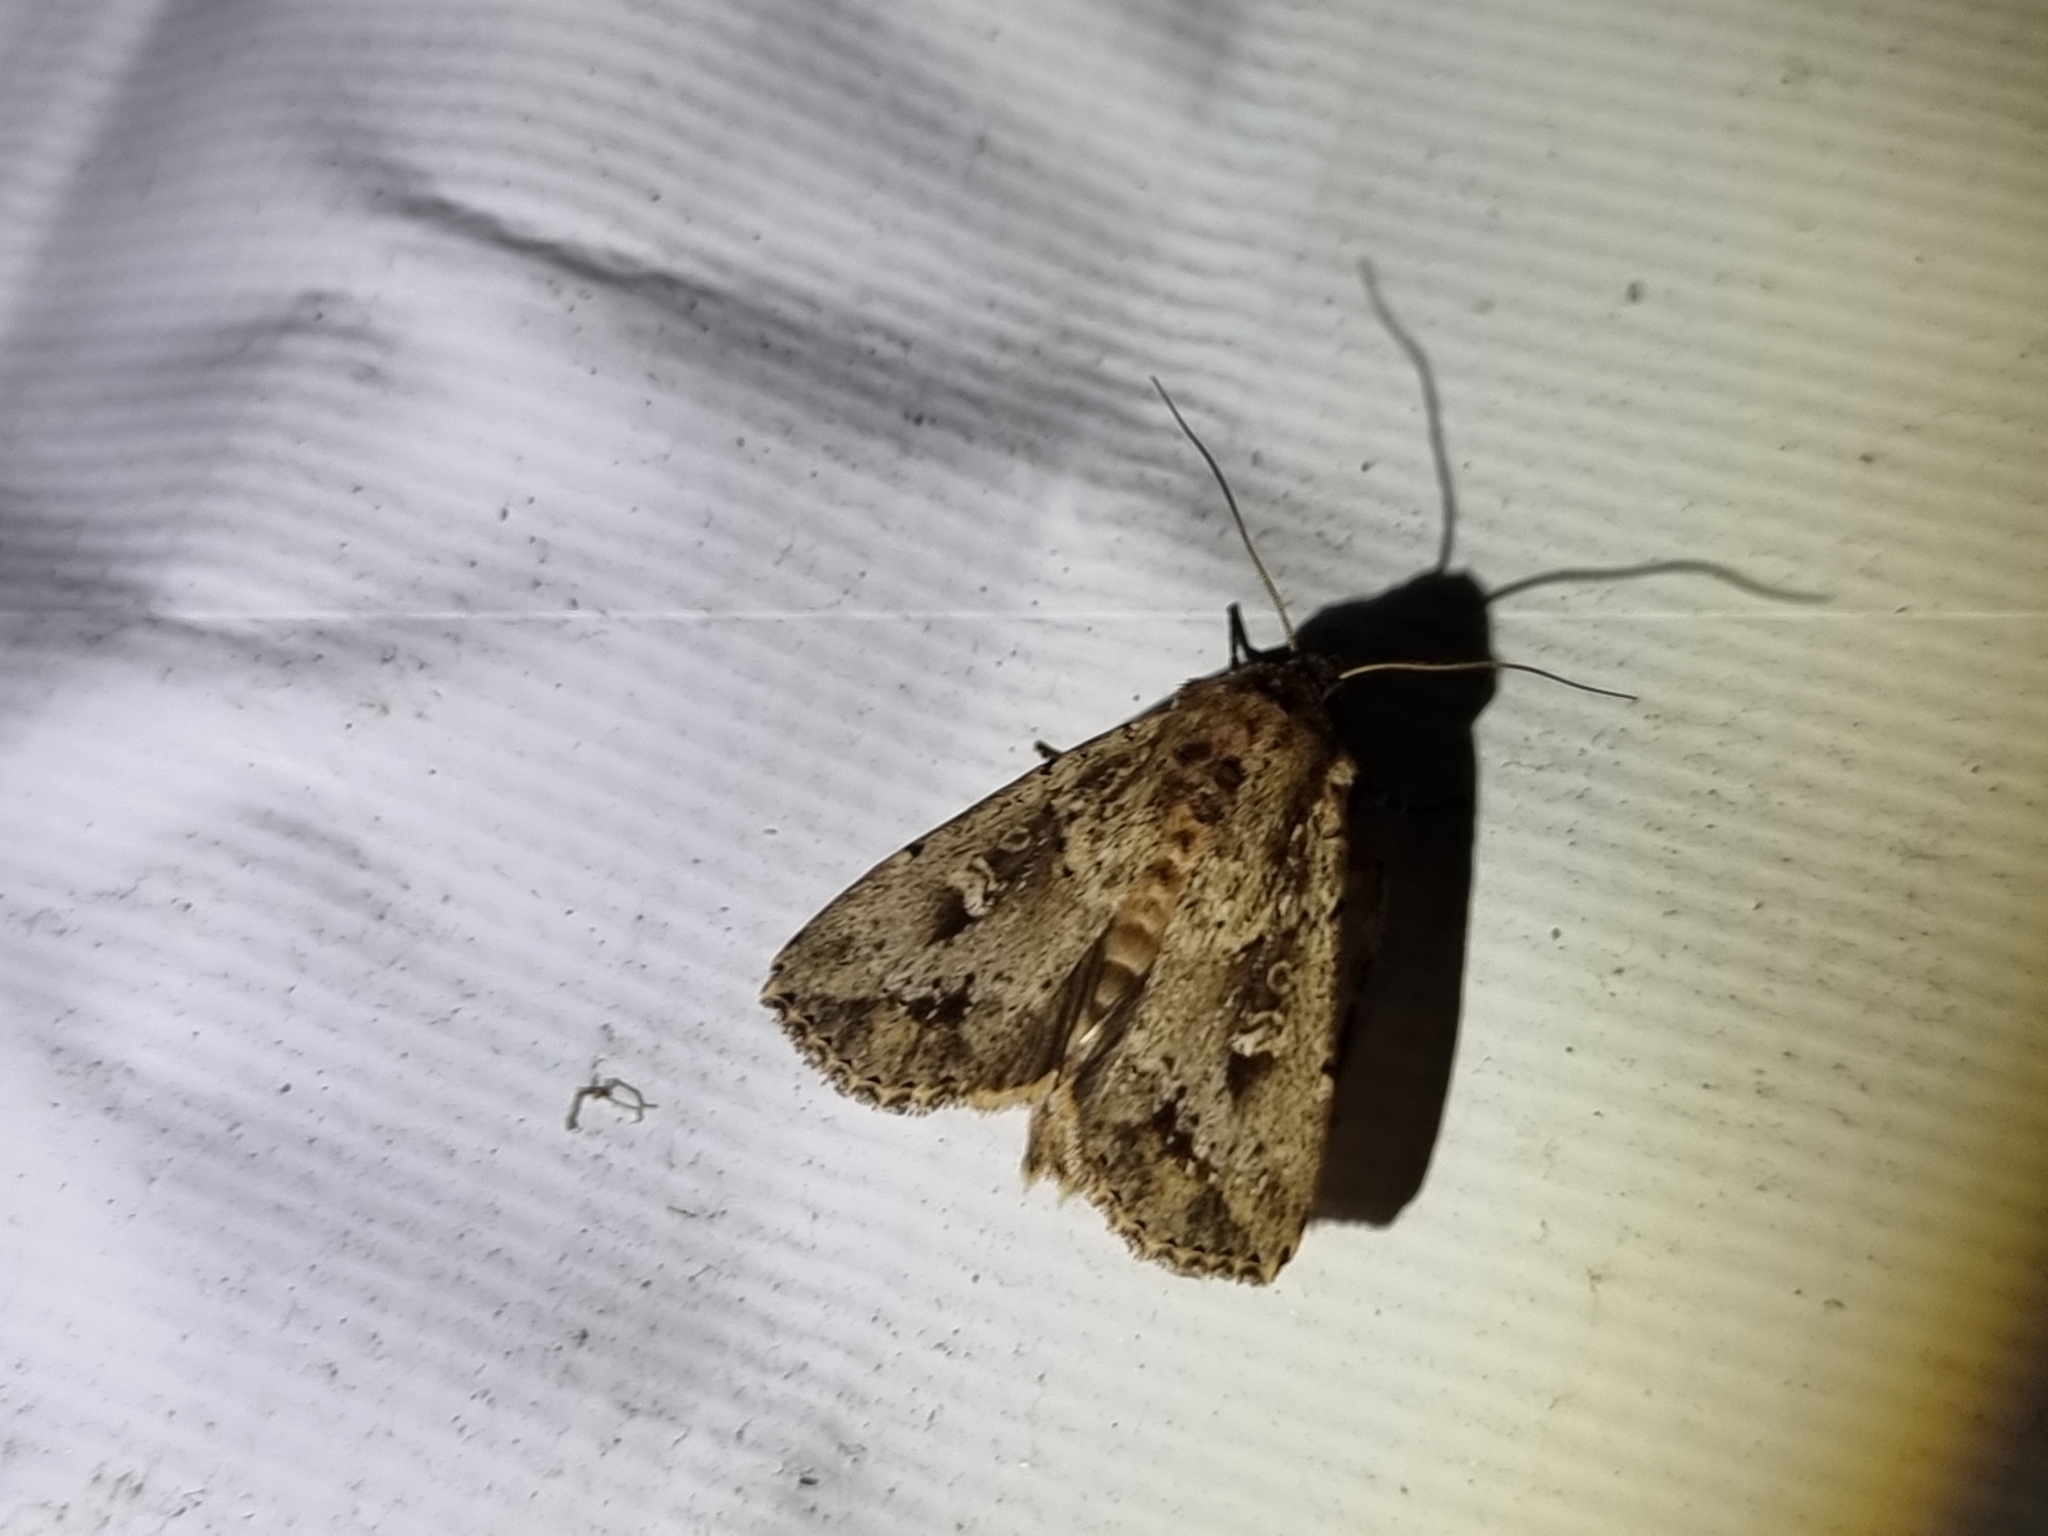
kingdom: Animalia
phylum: Arthropoda
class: Insecta
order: Lepidoptera
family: Noctuidae
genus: Mythimna
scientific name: Mythimna reversa
